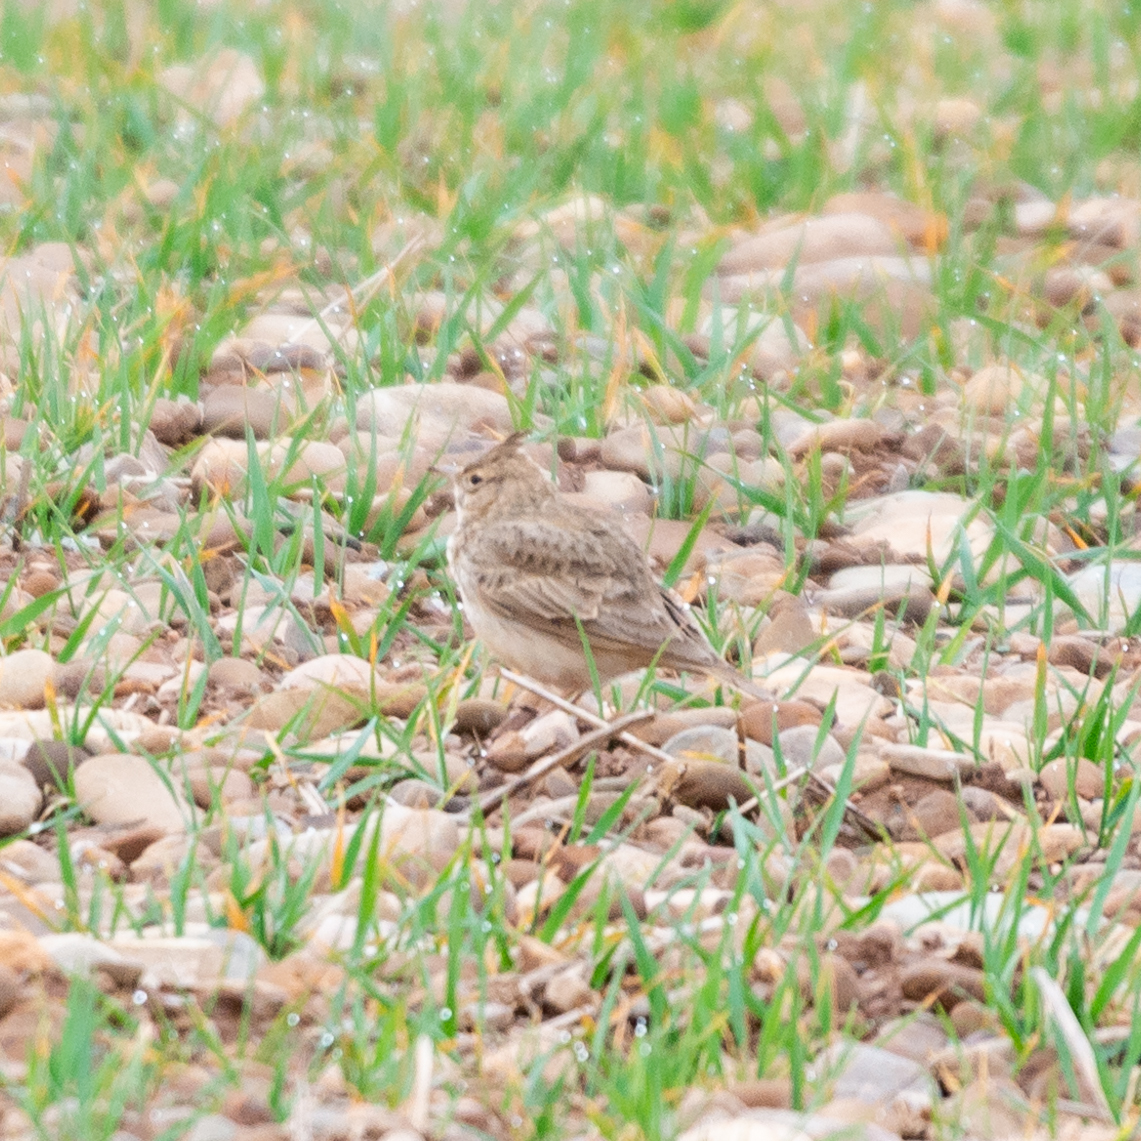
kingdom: Animalia
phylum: Chordata
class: Aves
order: Passeriformes
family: Alaudidae
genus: Galerida
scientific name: Galerida cristata
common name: Crested lark
